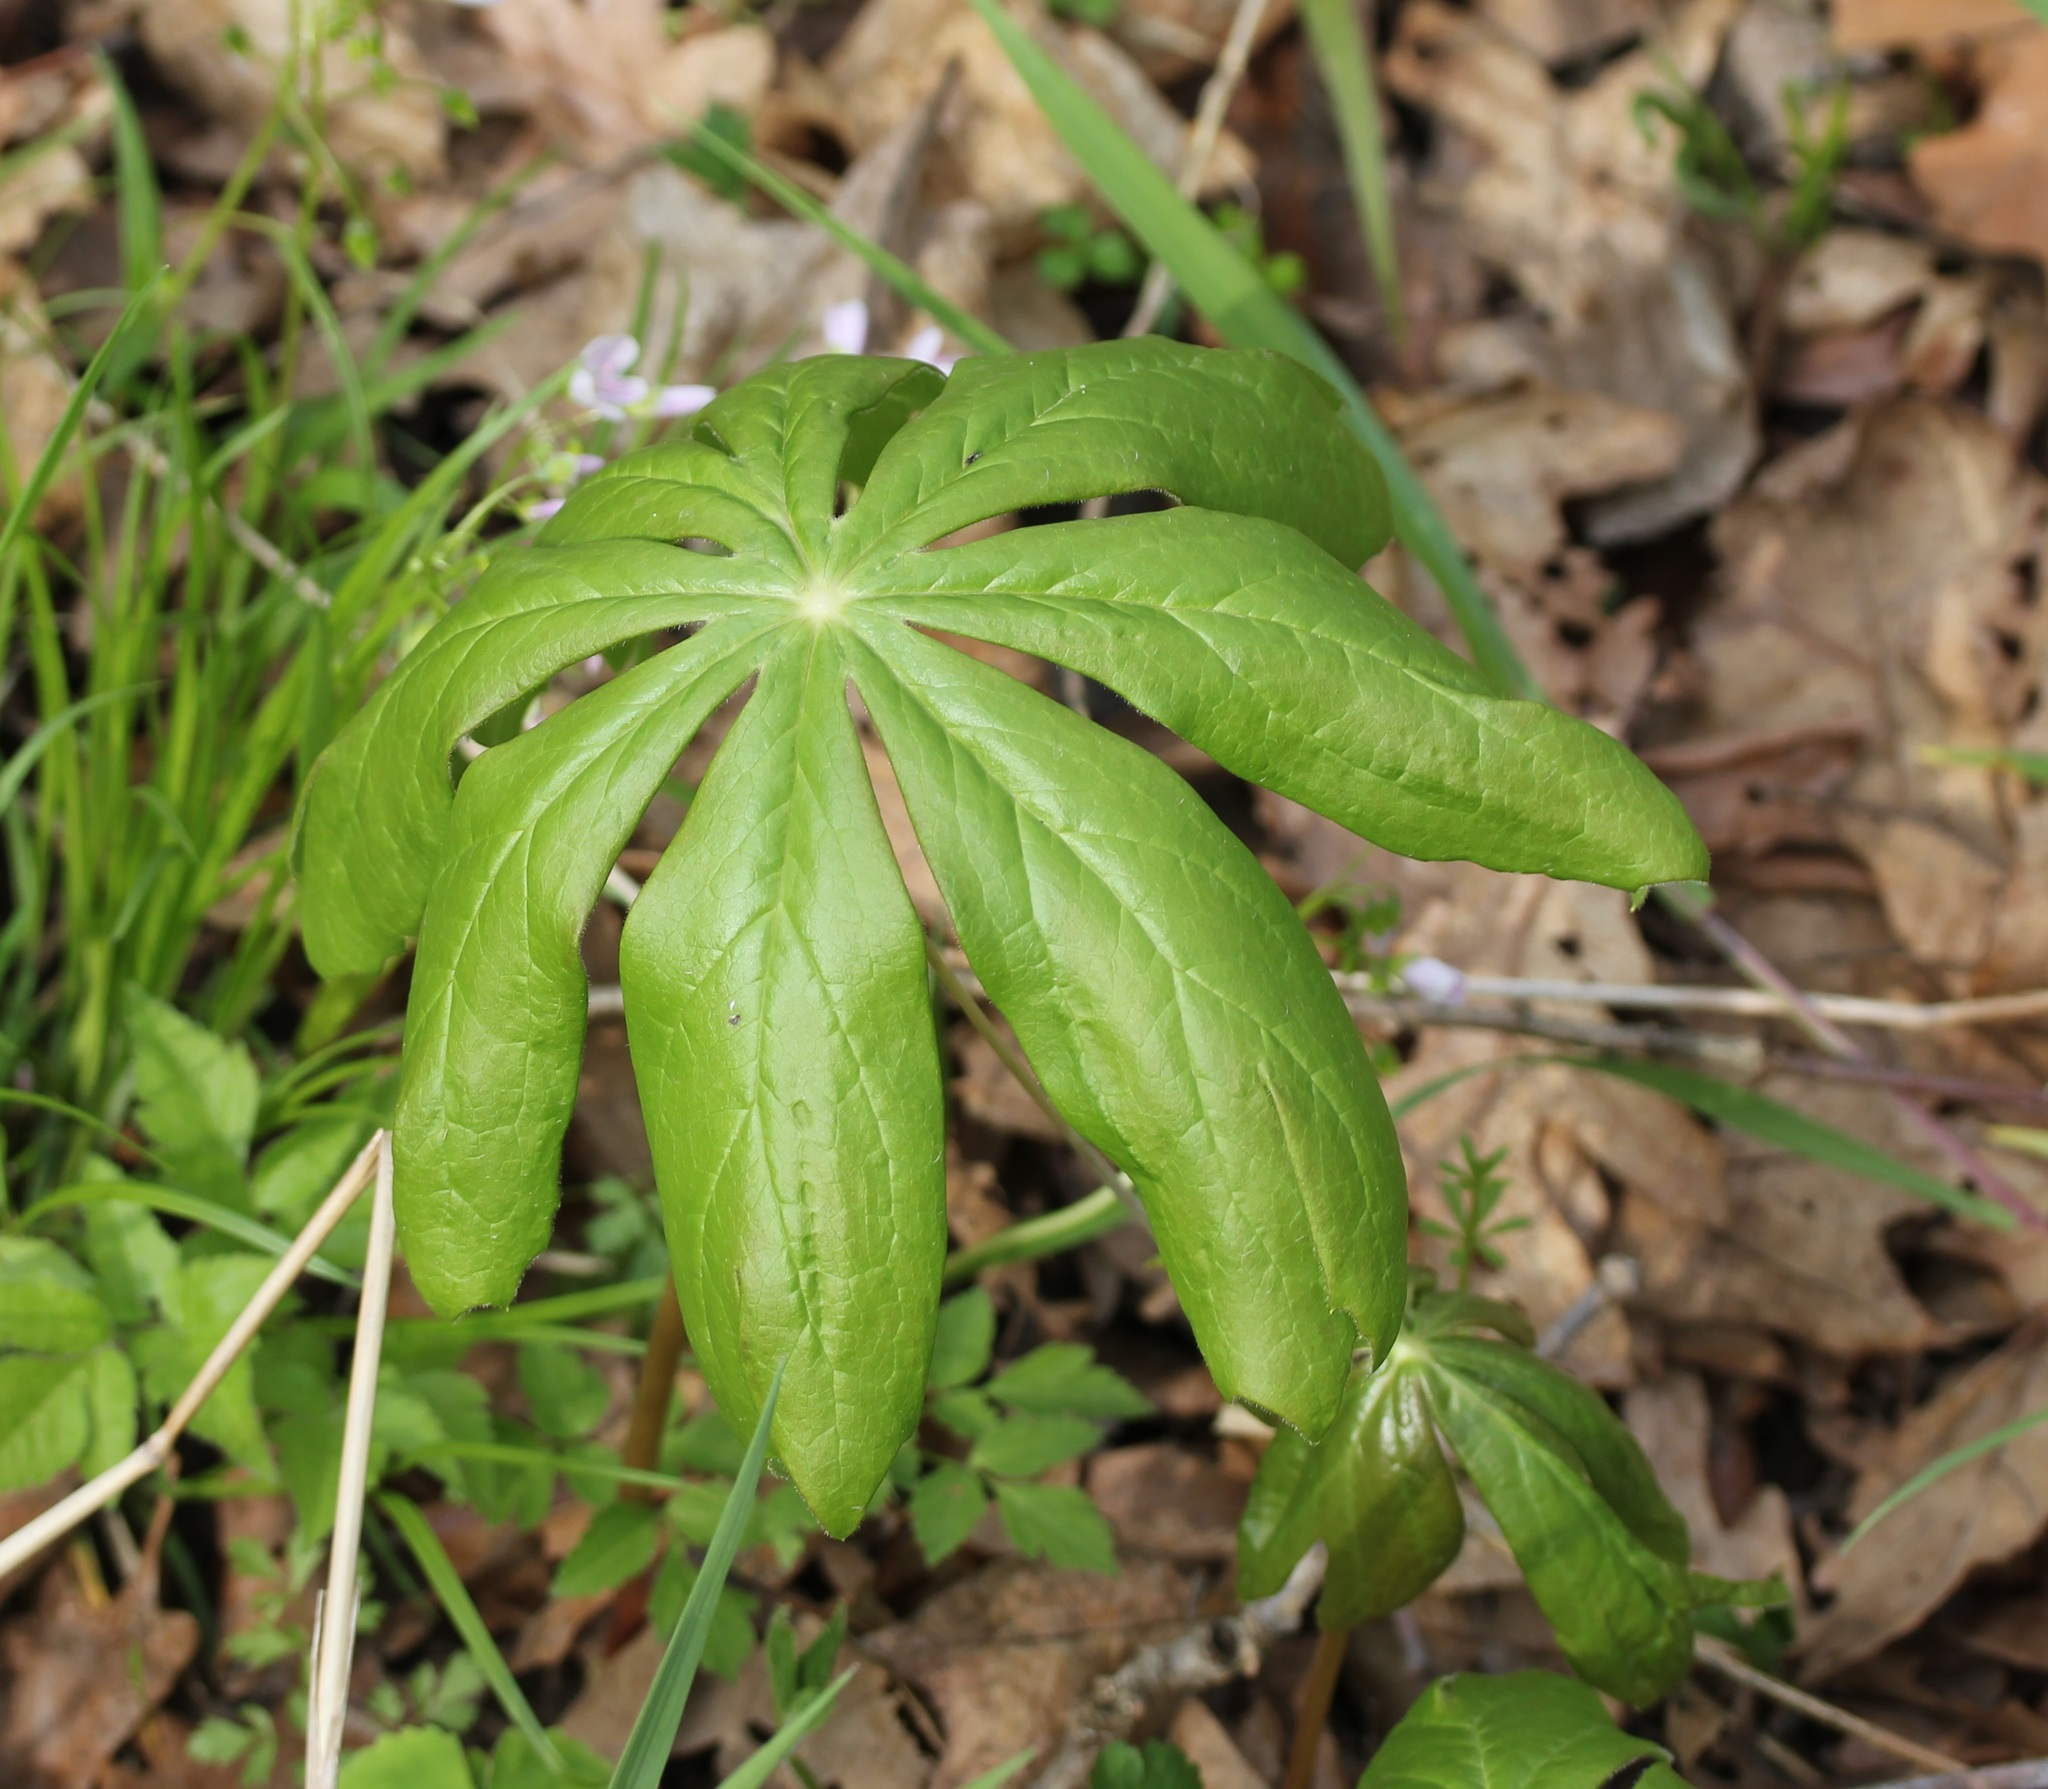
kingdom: Plantae
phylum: Tracheophyta
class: Magnoliopsida
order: Ranunculales
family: Berberidaceae
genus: Podophyllum
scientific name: Podophyllum peltatum
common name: Wild mandrake
